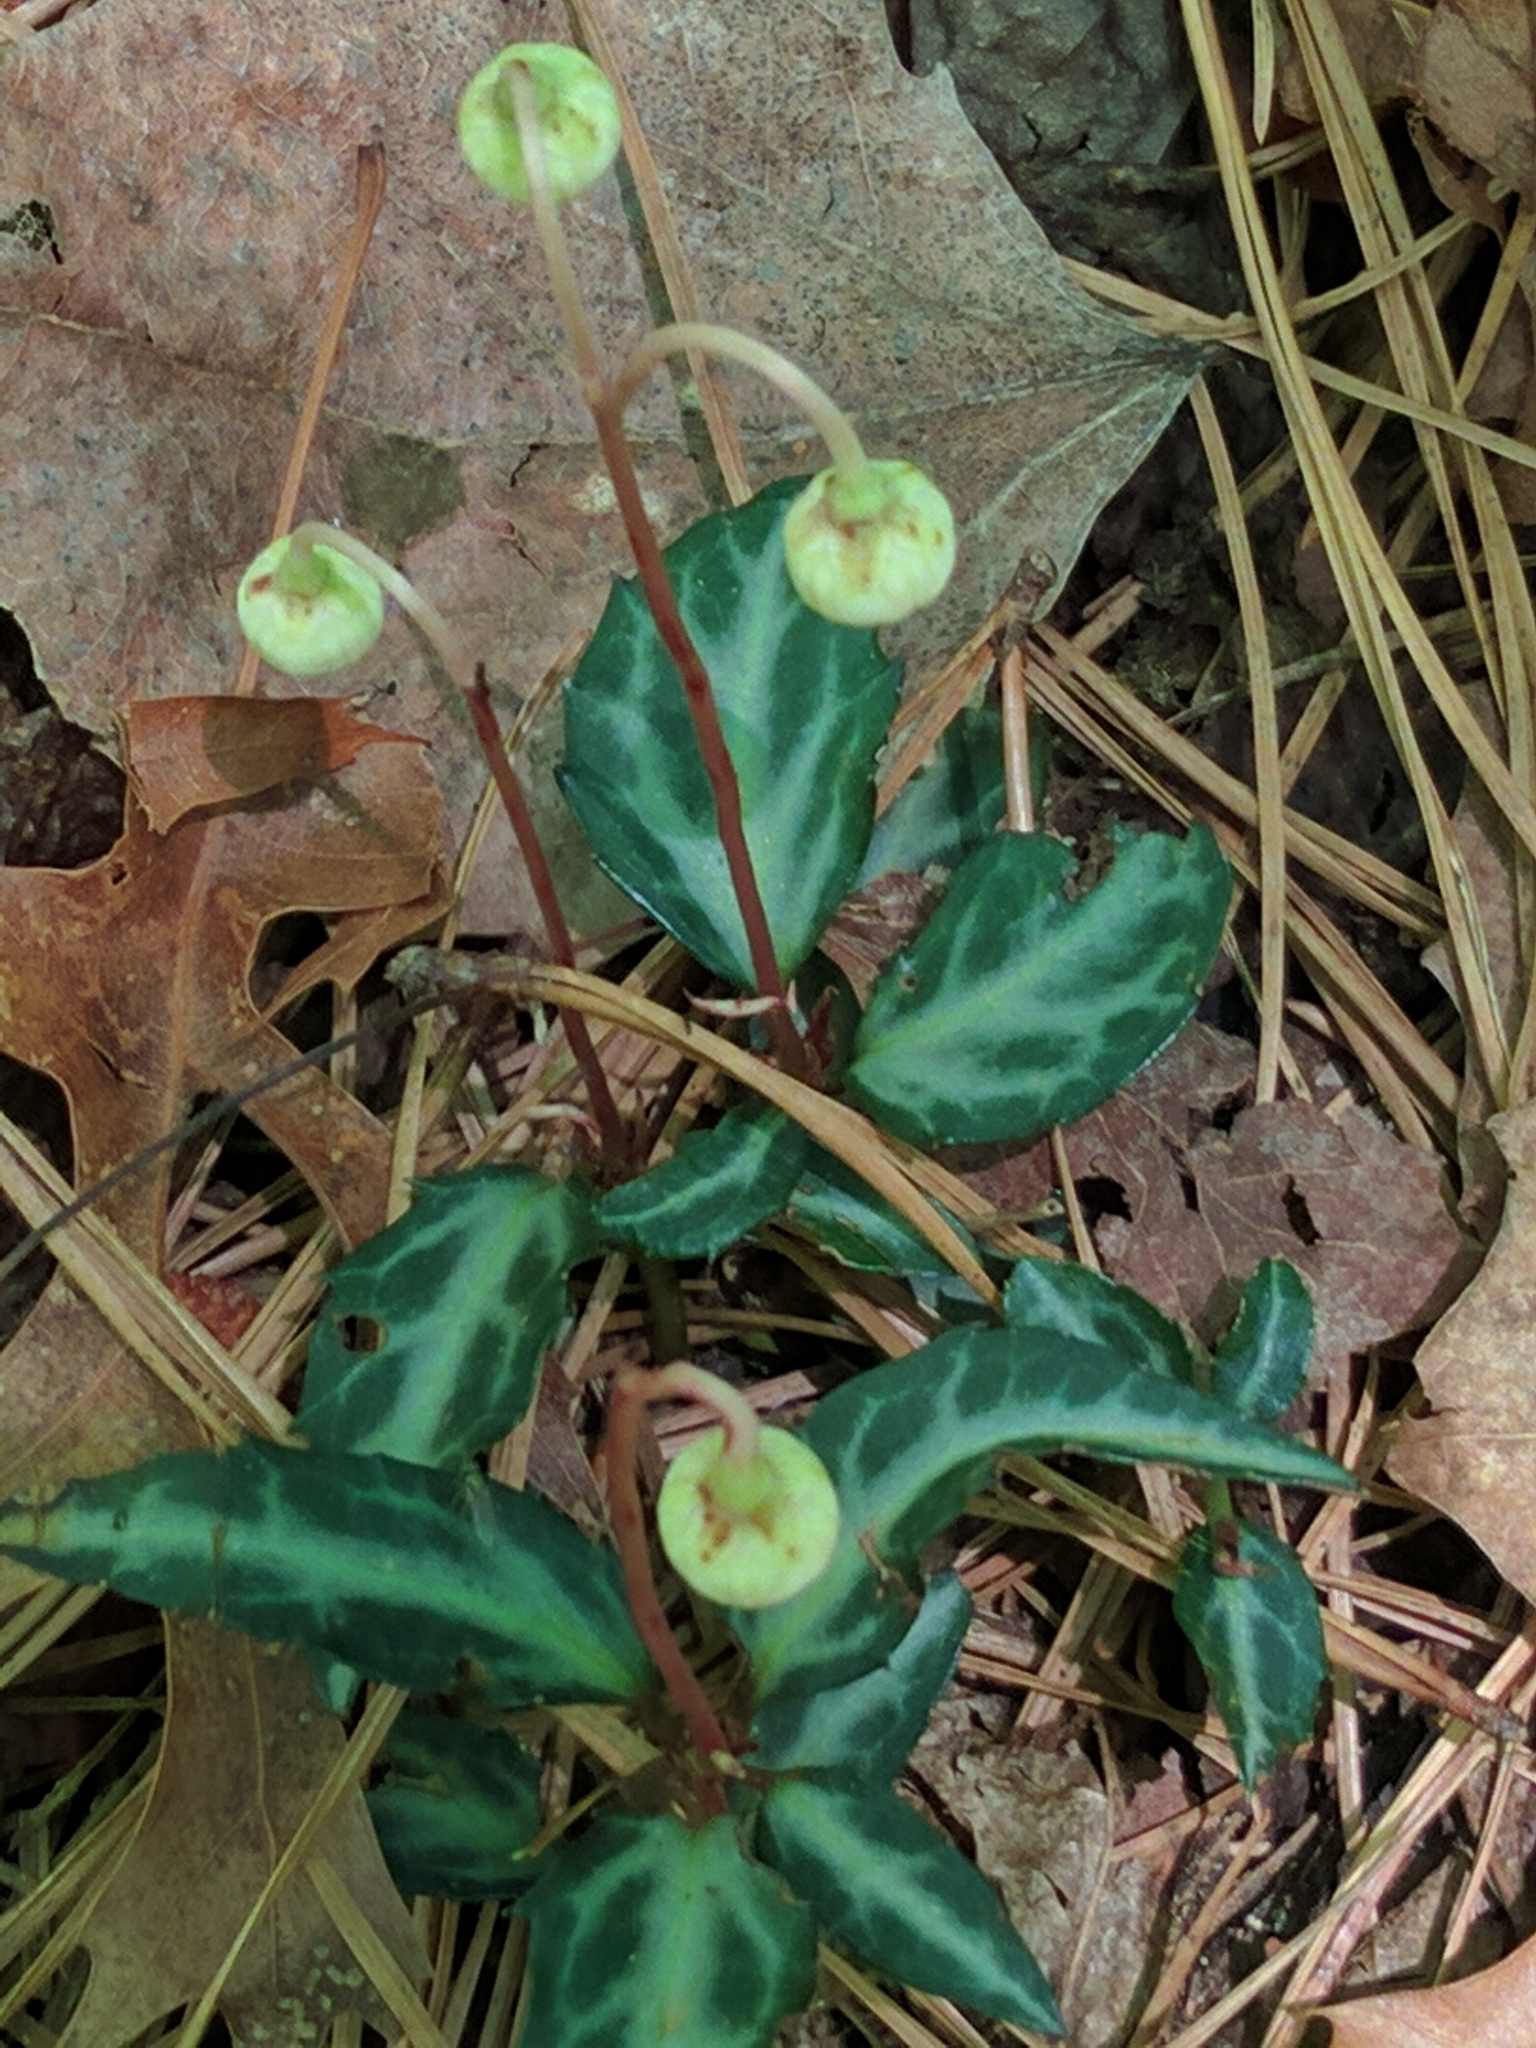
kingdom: Plantae
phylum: Tracheophyta
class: Magnoliopsida
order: Ericales
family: Ericaceae
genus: Chimaphila
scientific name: Chimaphila maculata
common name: Spotted pipsissewa
